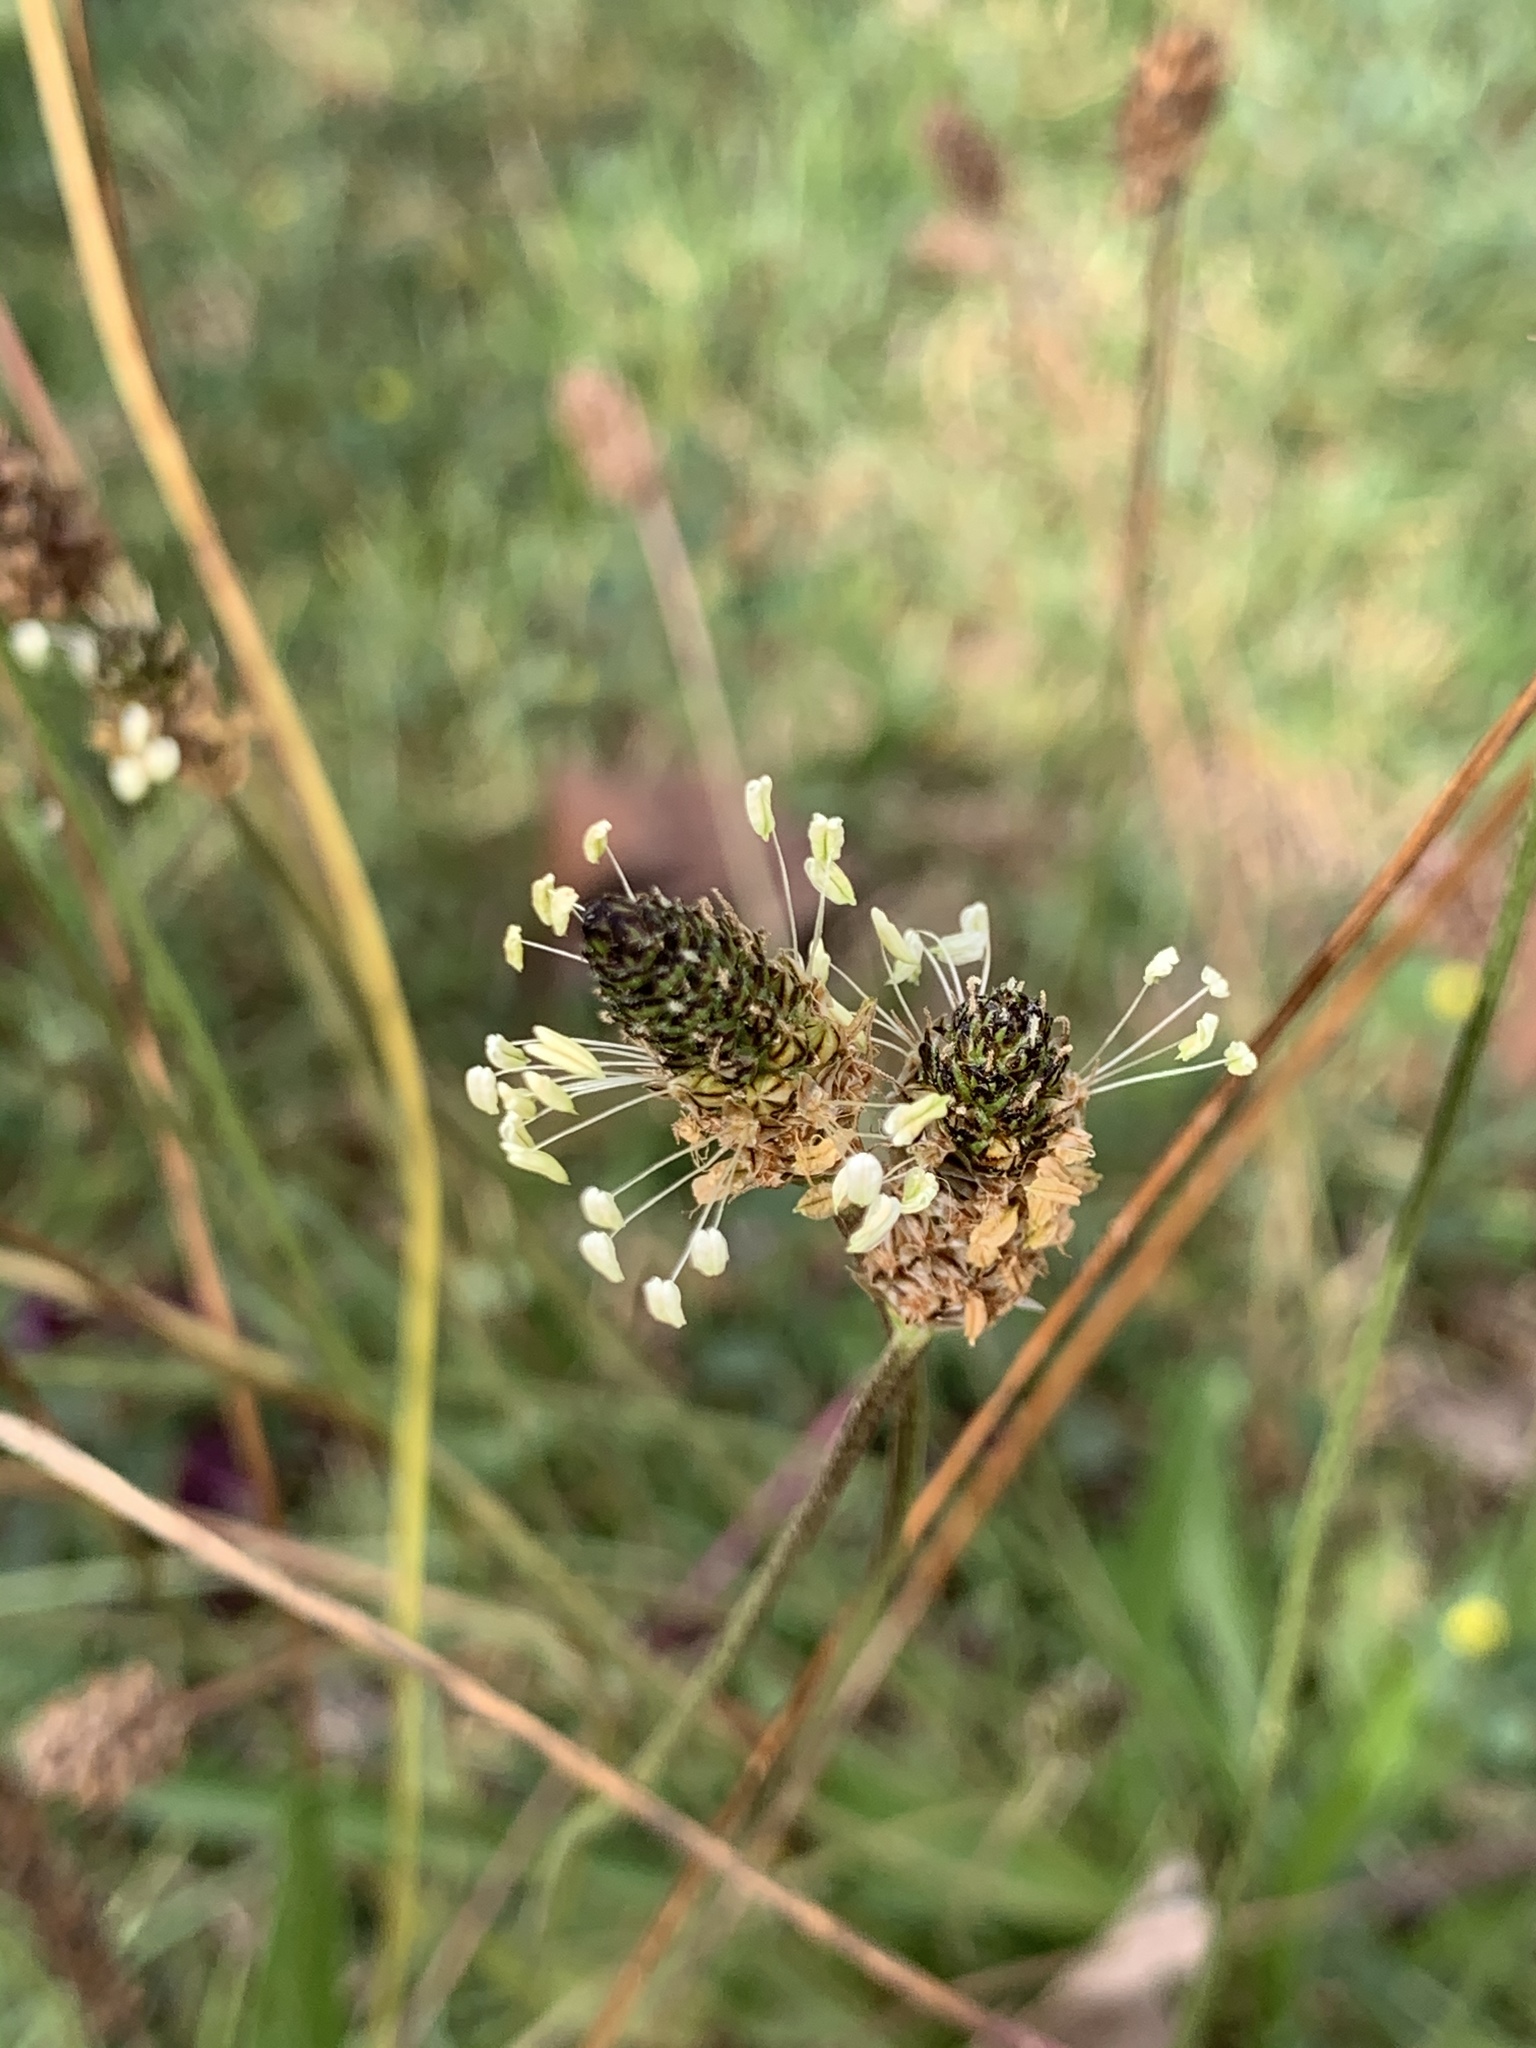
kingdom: Plantae
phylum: Tracheophyta
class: Magnoliopsida
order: Lamiales
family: Plantaginaceae
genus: Plantago
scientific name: Plantago lanceolata
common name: Ribwort plantain
